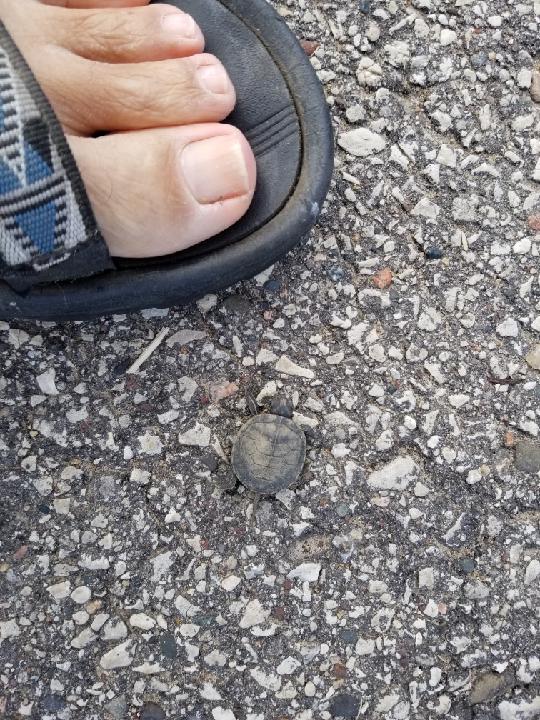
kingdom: Animalia
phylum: Chordata
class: Testudines
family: Emydidae
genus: Chrysemys
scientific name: Chrysemys picta
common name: Painted turtle
